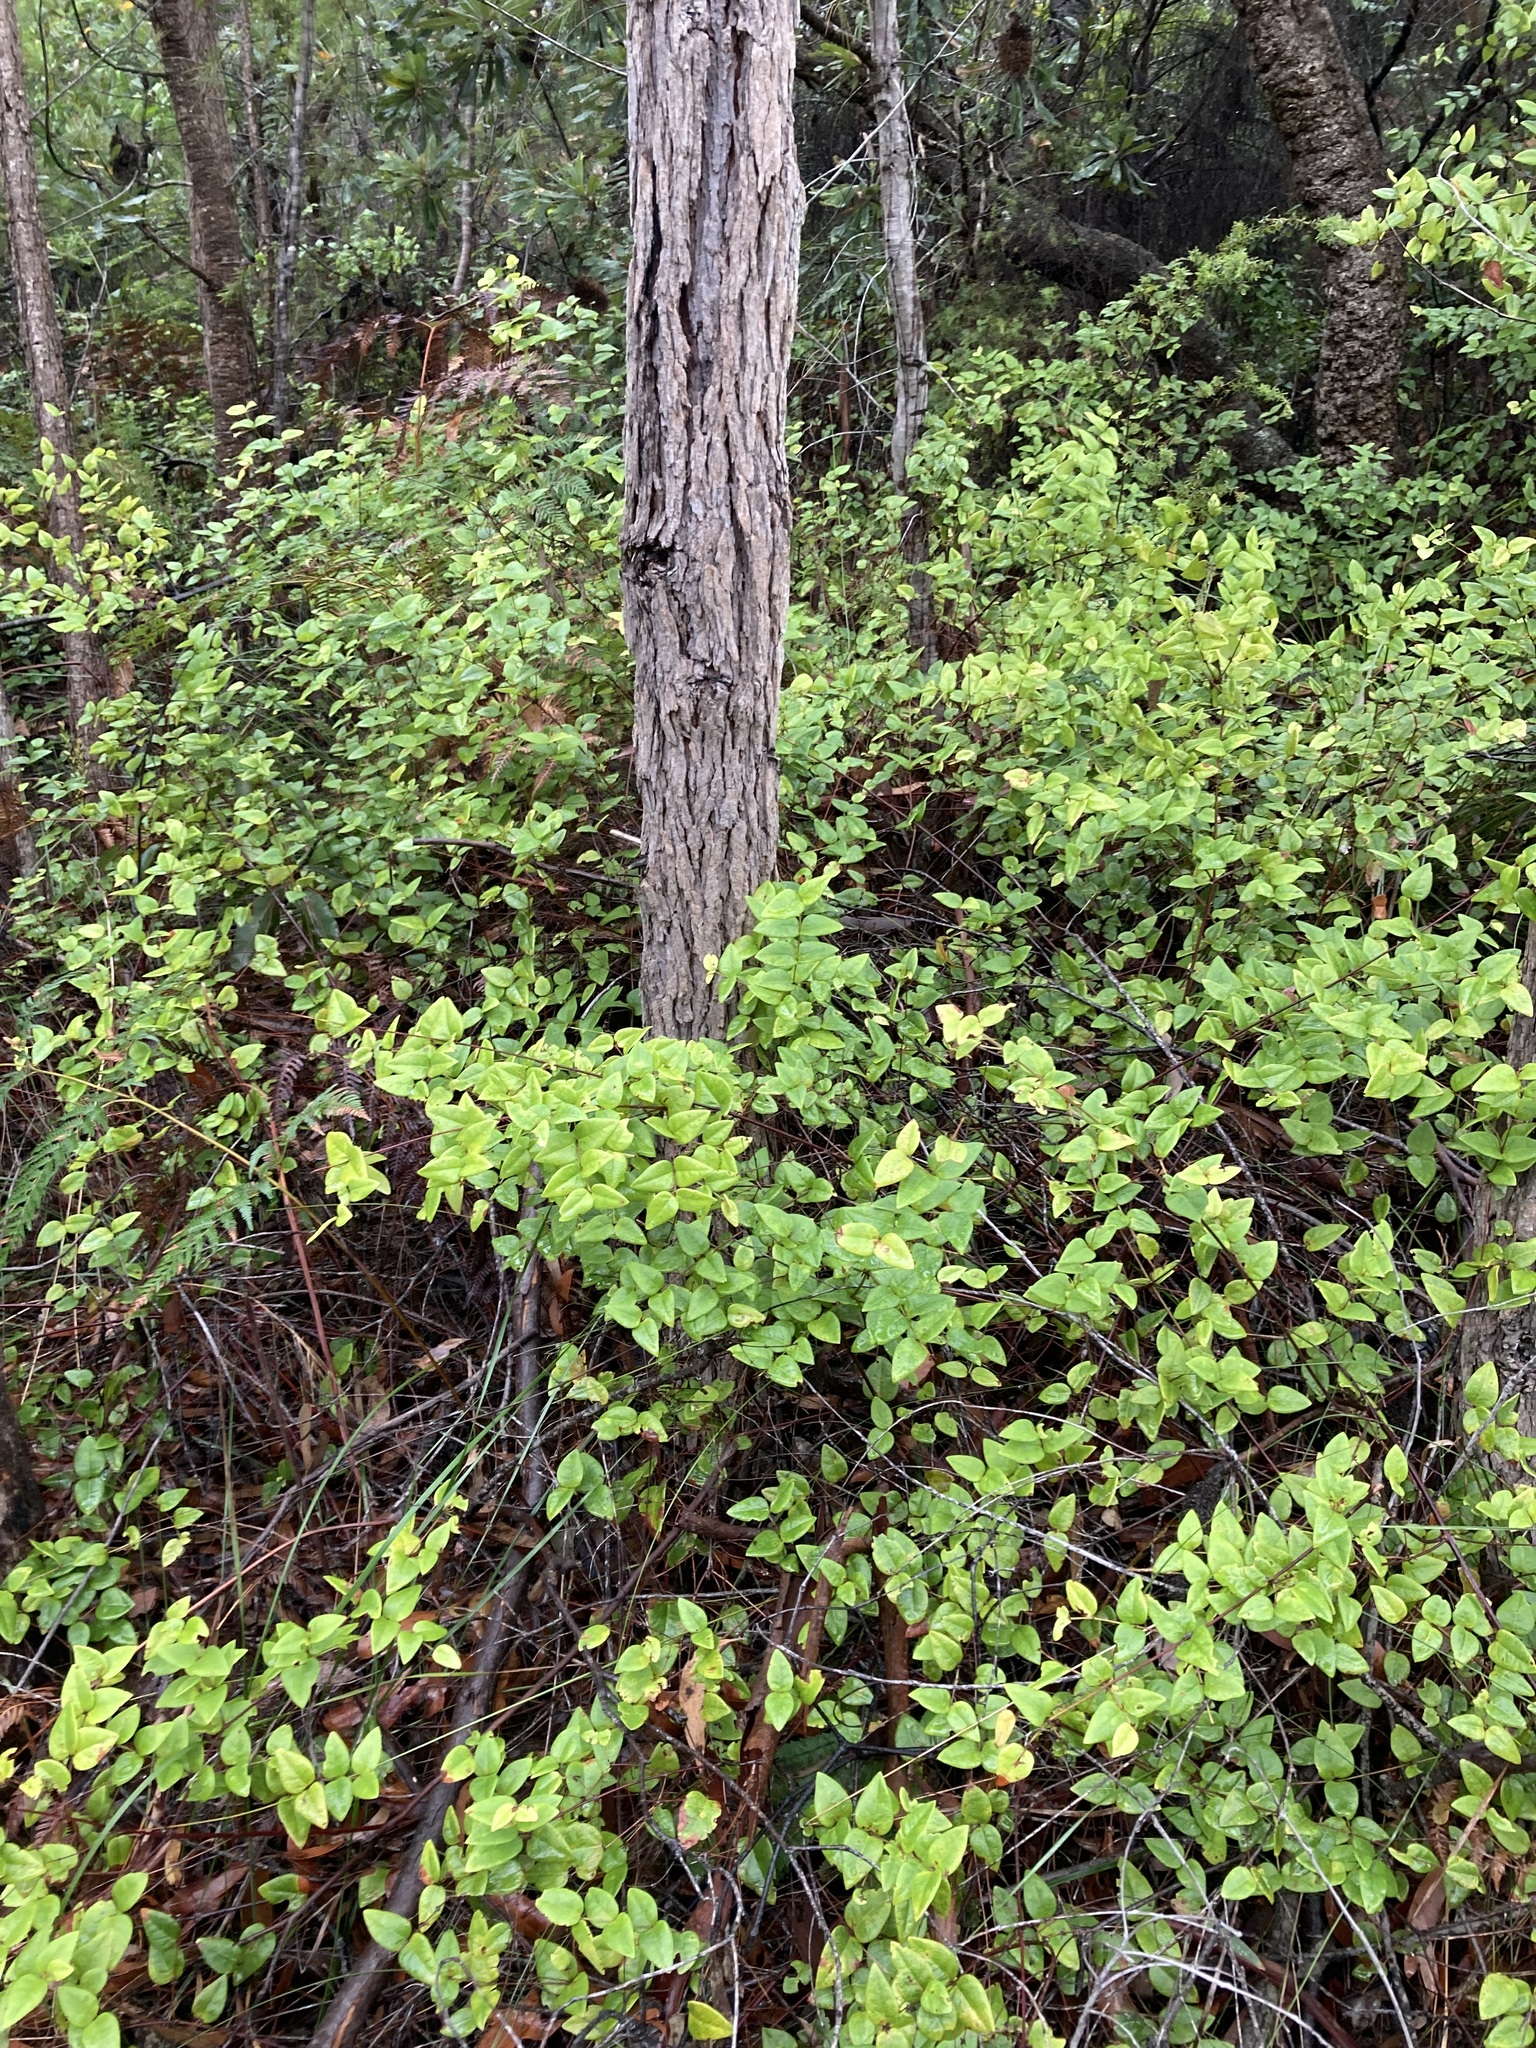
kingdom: Plantae
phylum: Tracheophyta
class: Magnoliopsida
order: Fabales
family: Fabaceae
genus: Platylobium
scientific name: Platylobium formosum
